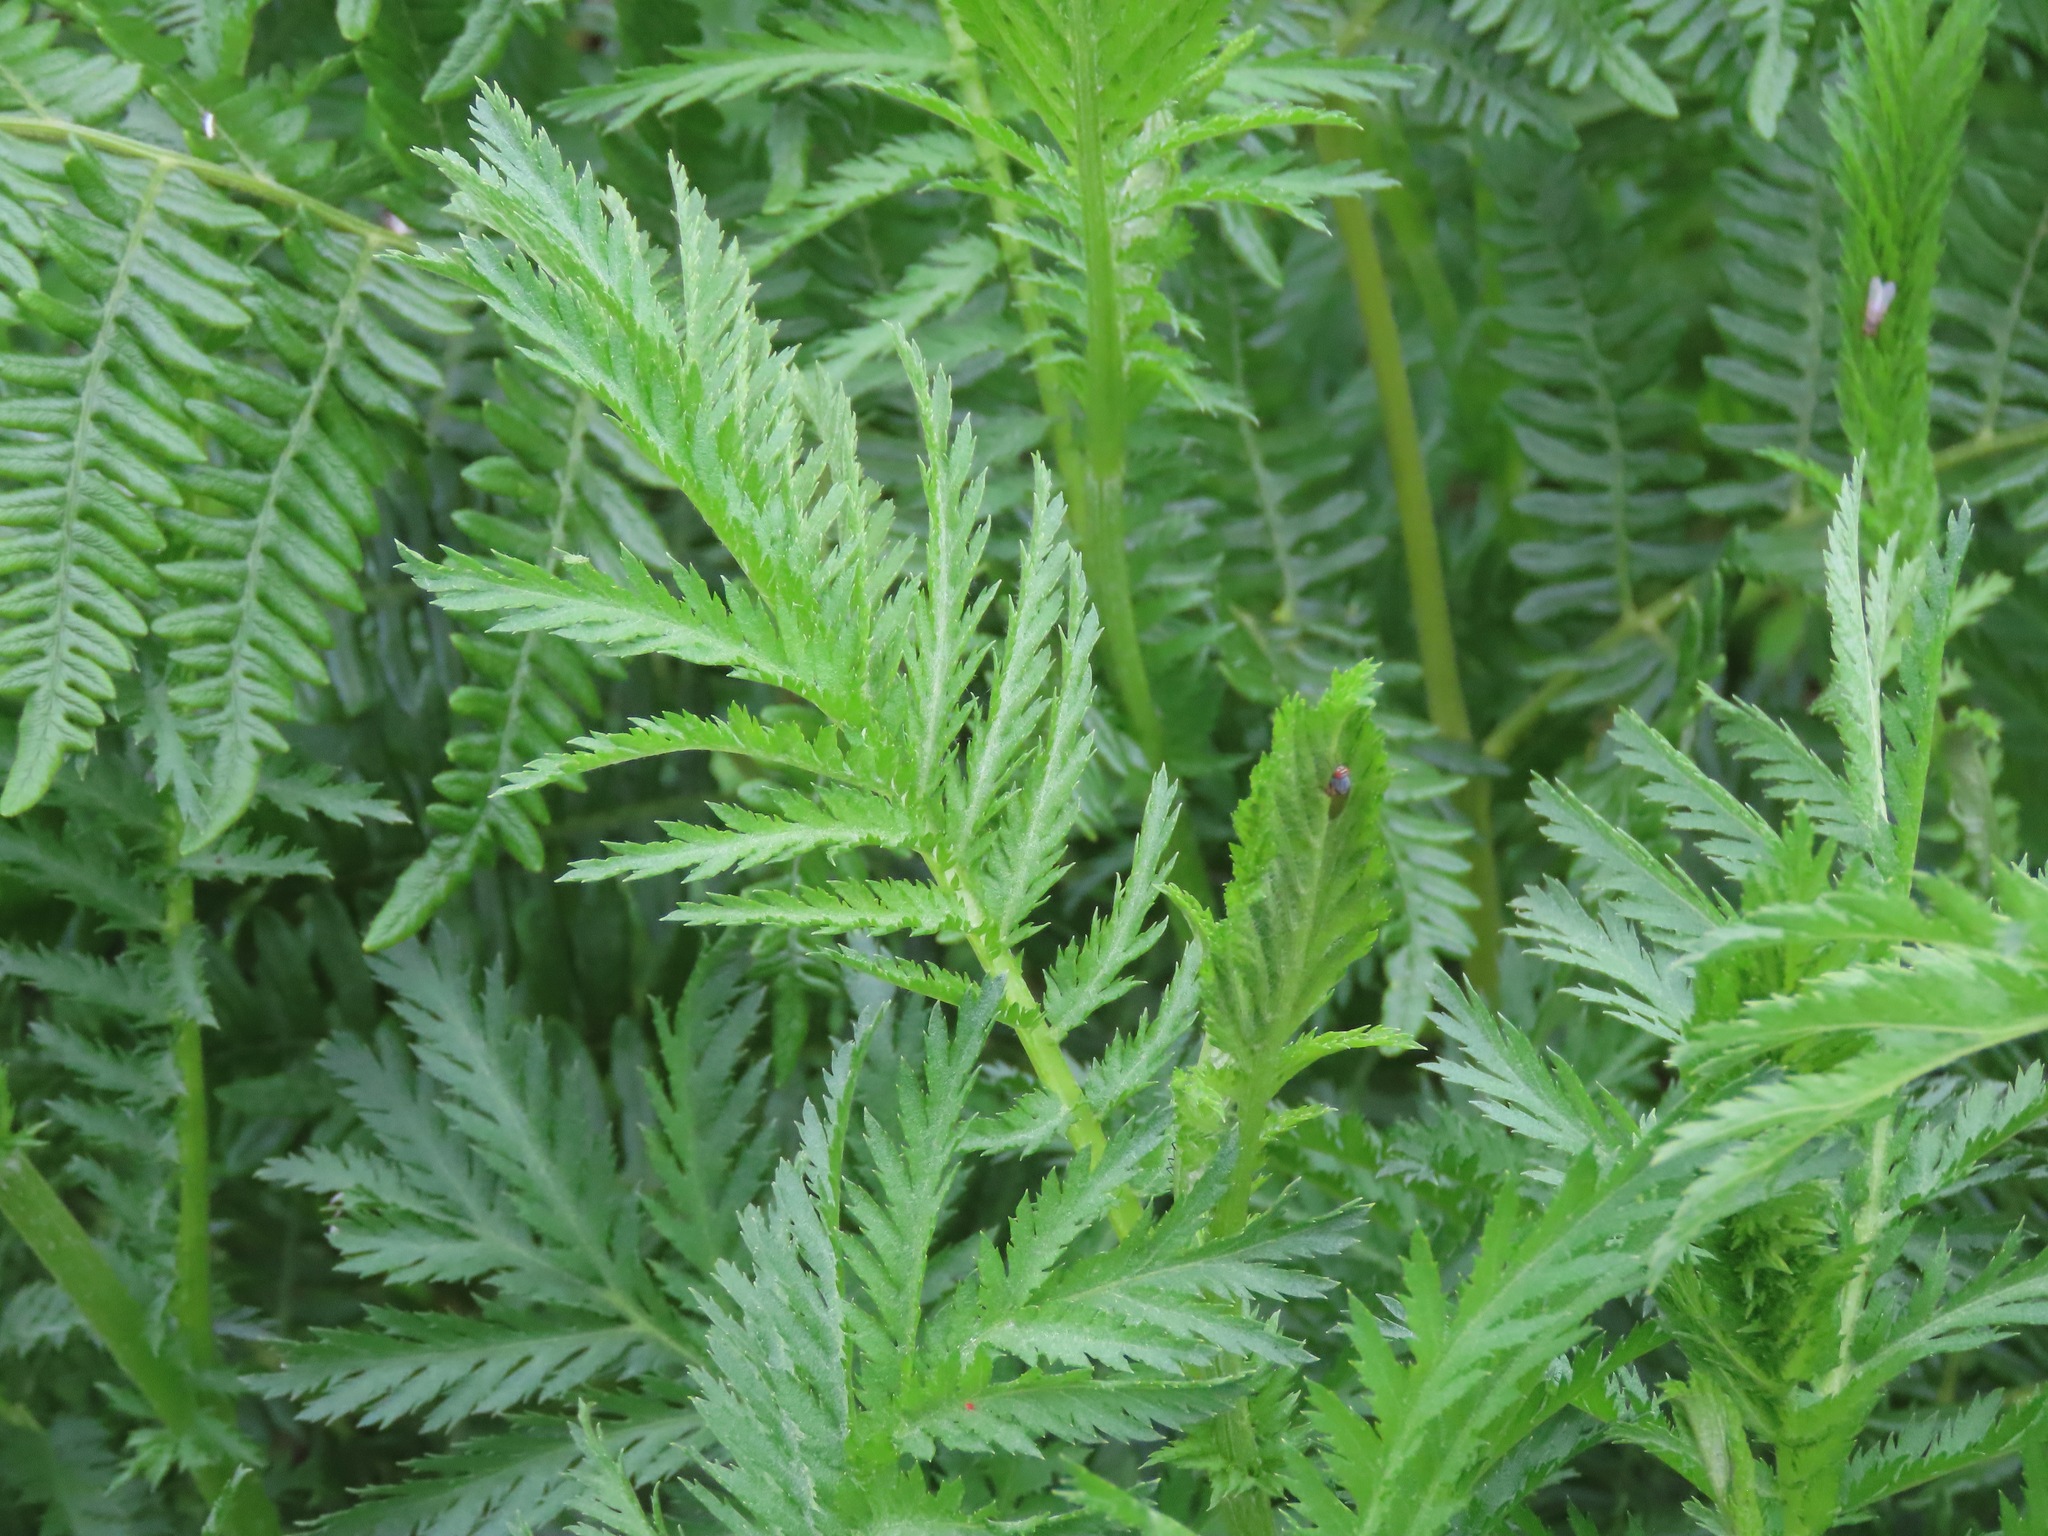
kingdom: Plantae
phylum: Tracheophyta
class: Magnoliopsida
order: Asterales
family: Asteraceae
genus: Tanacetum
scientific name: Tanacetum vulgare
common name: Common tansy
